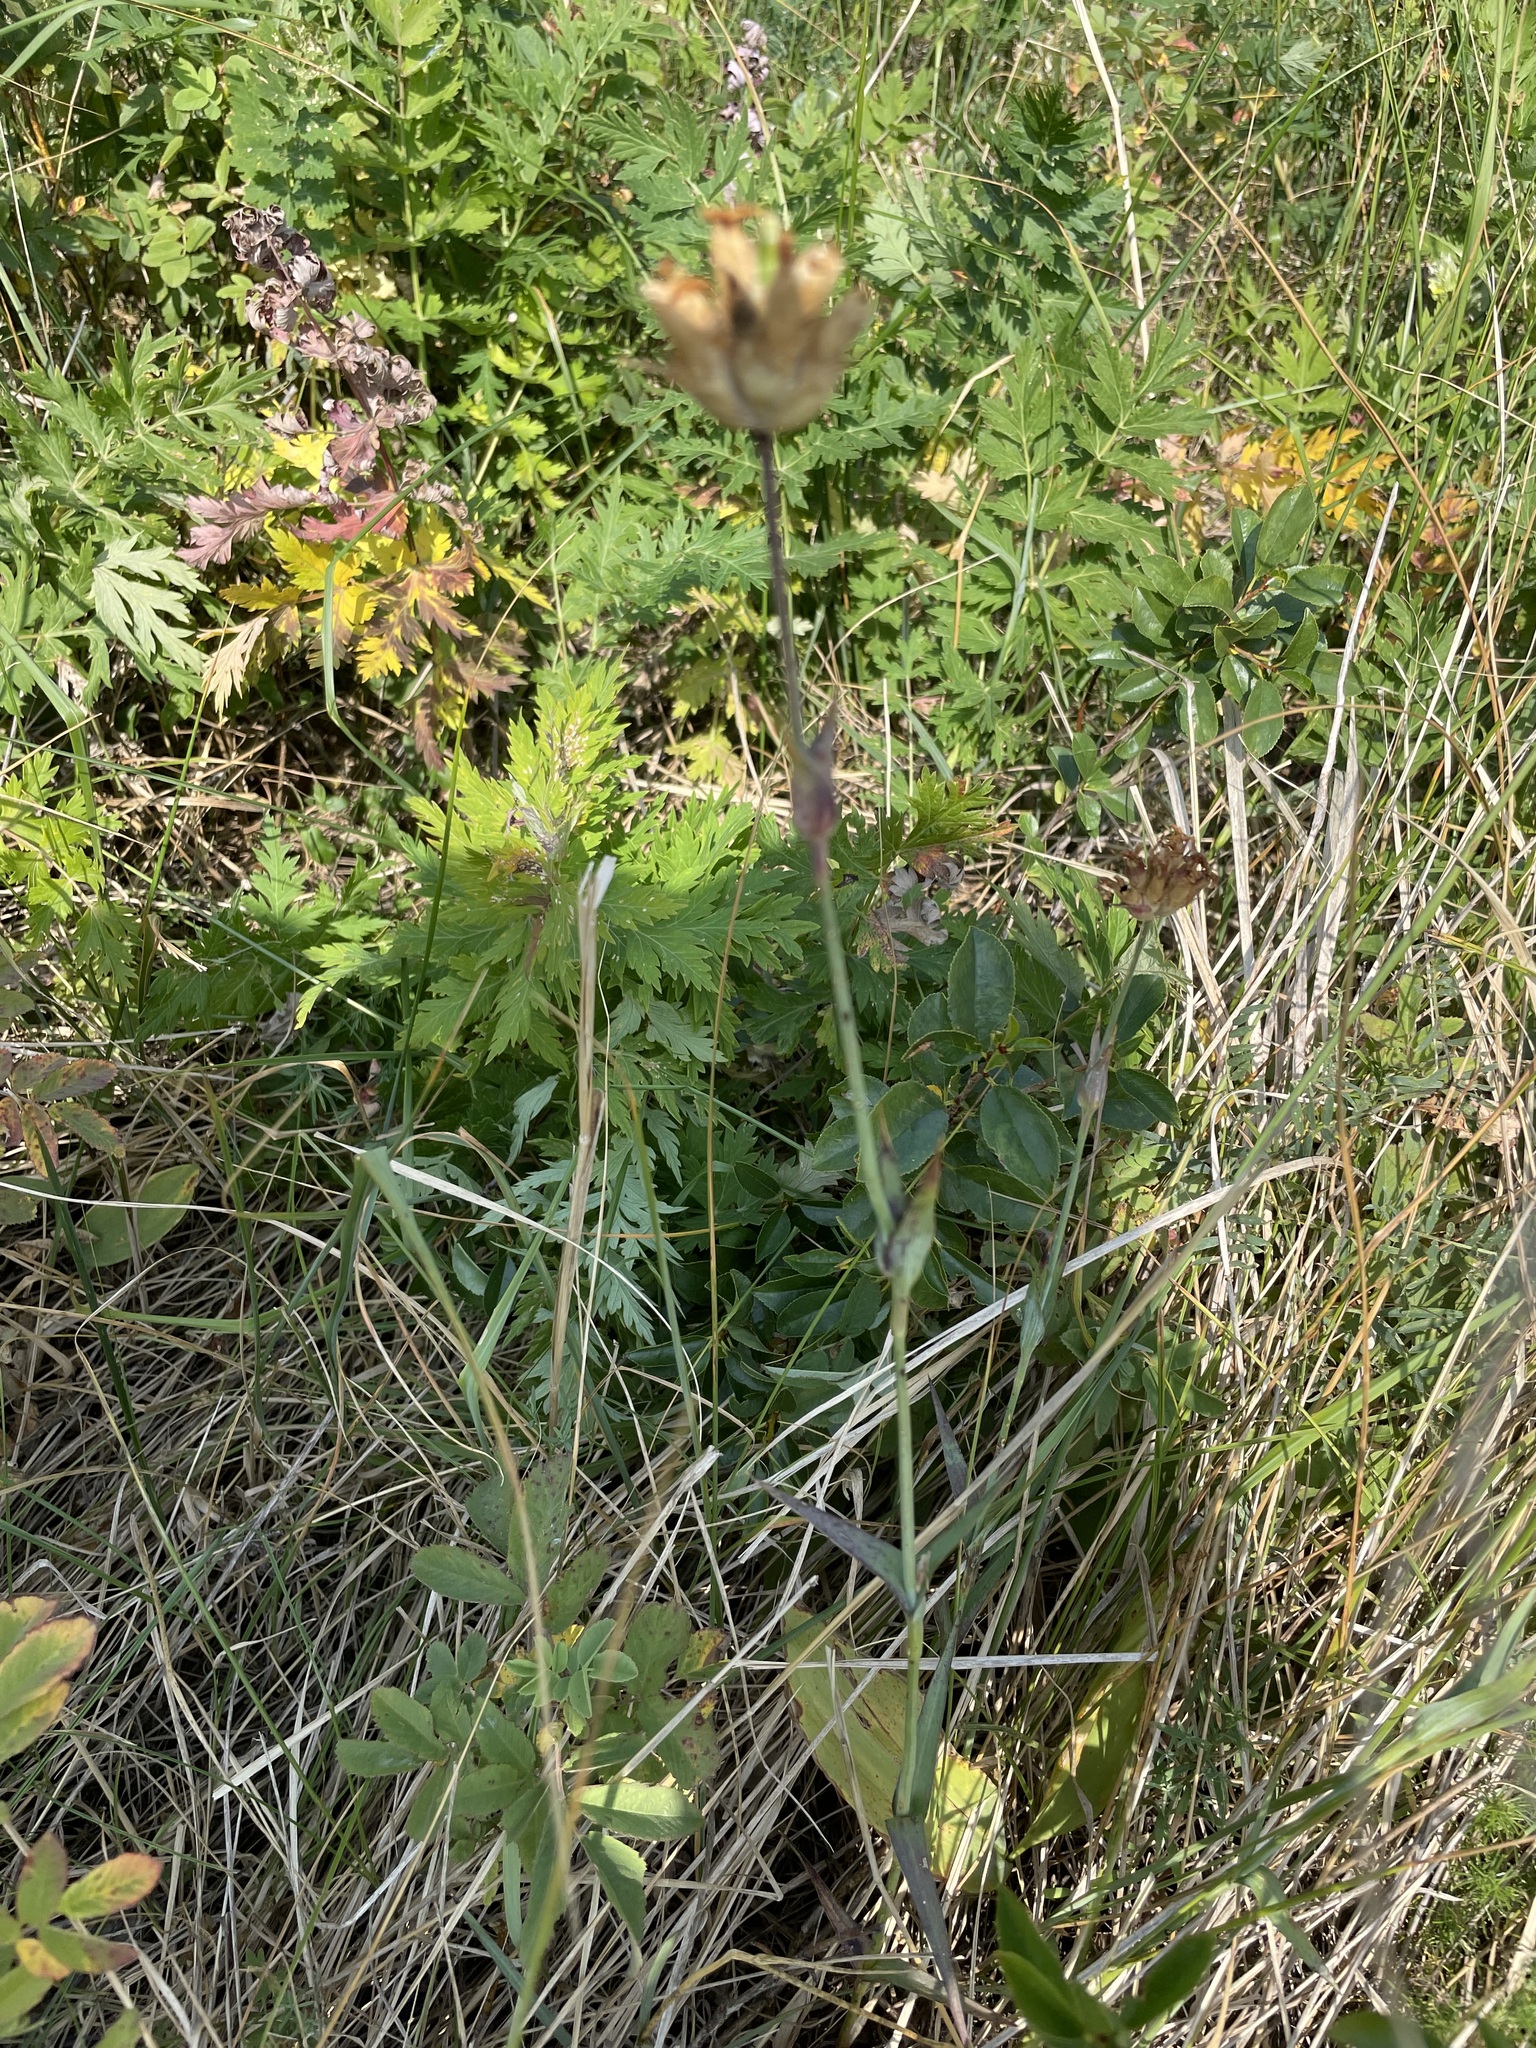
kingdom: Plantae
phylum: Tracheophyta
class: Magnoliopsida
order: Caryophyllales
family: Caryophyllaceae
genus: Dianthus
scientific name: Dianthus capitatus
